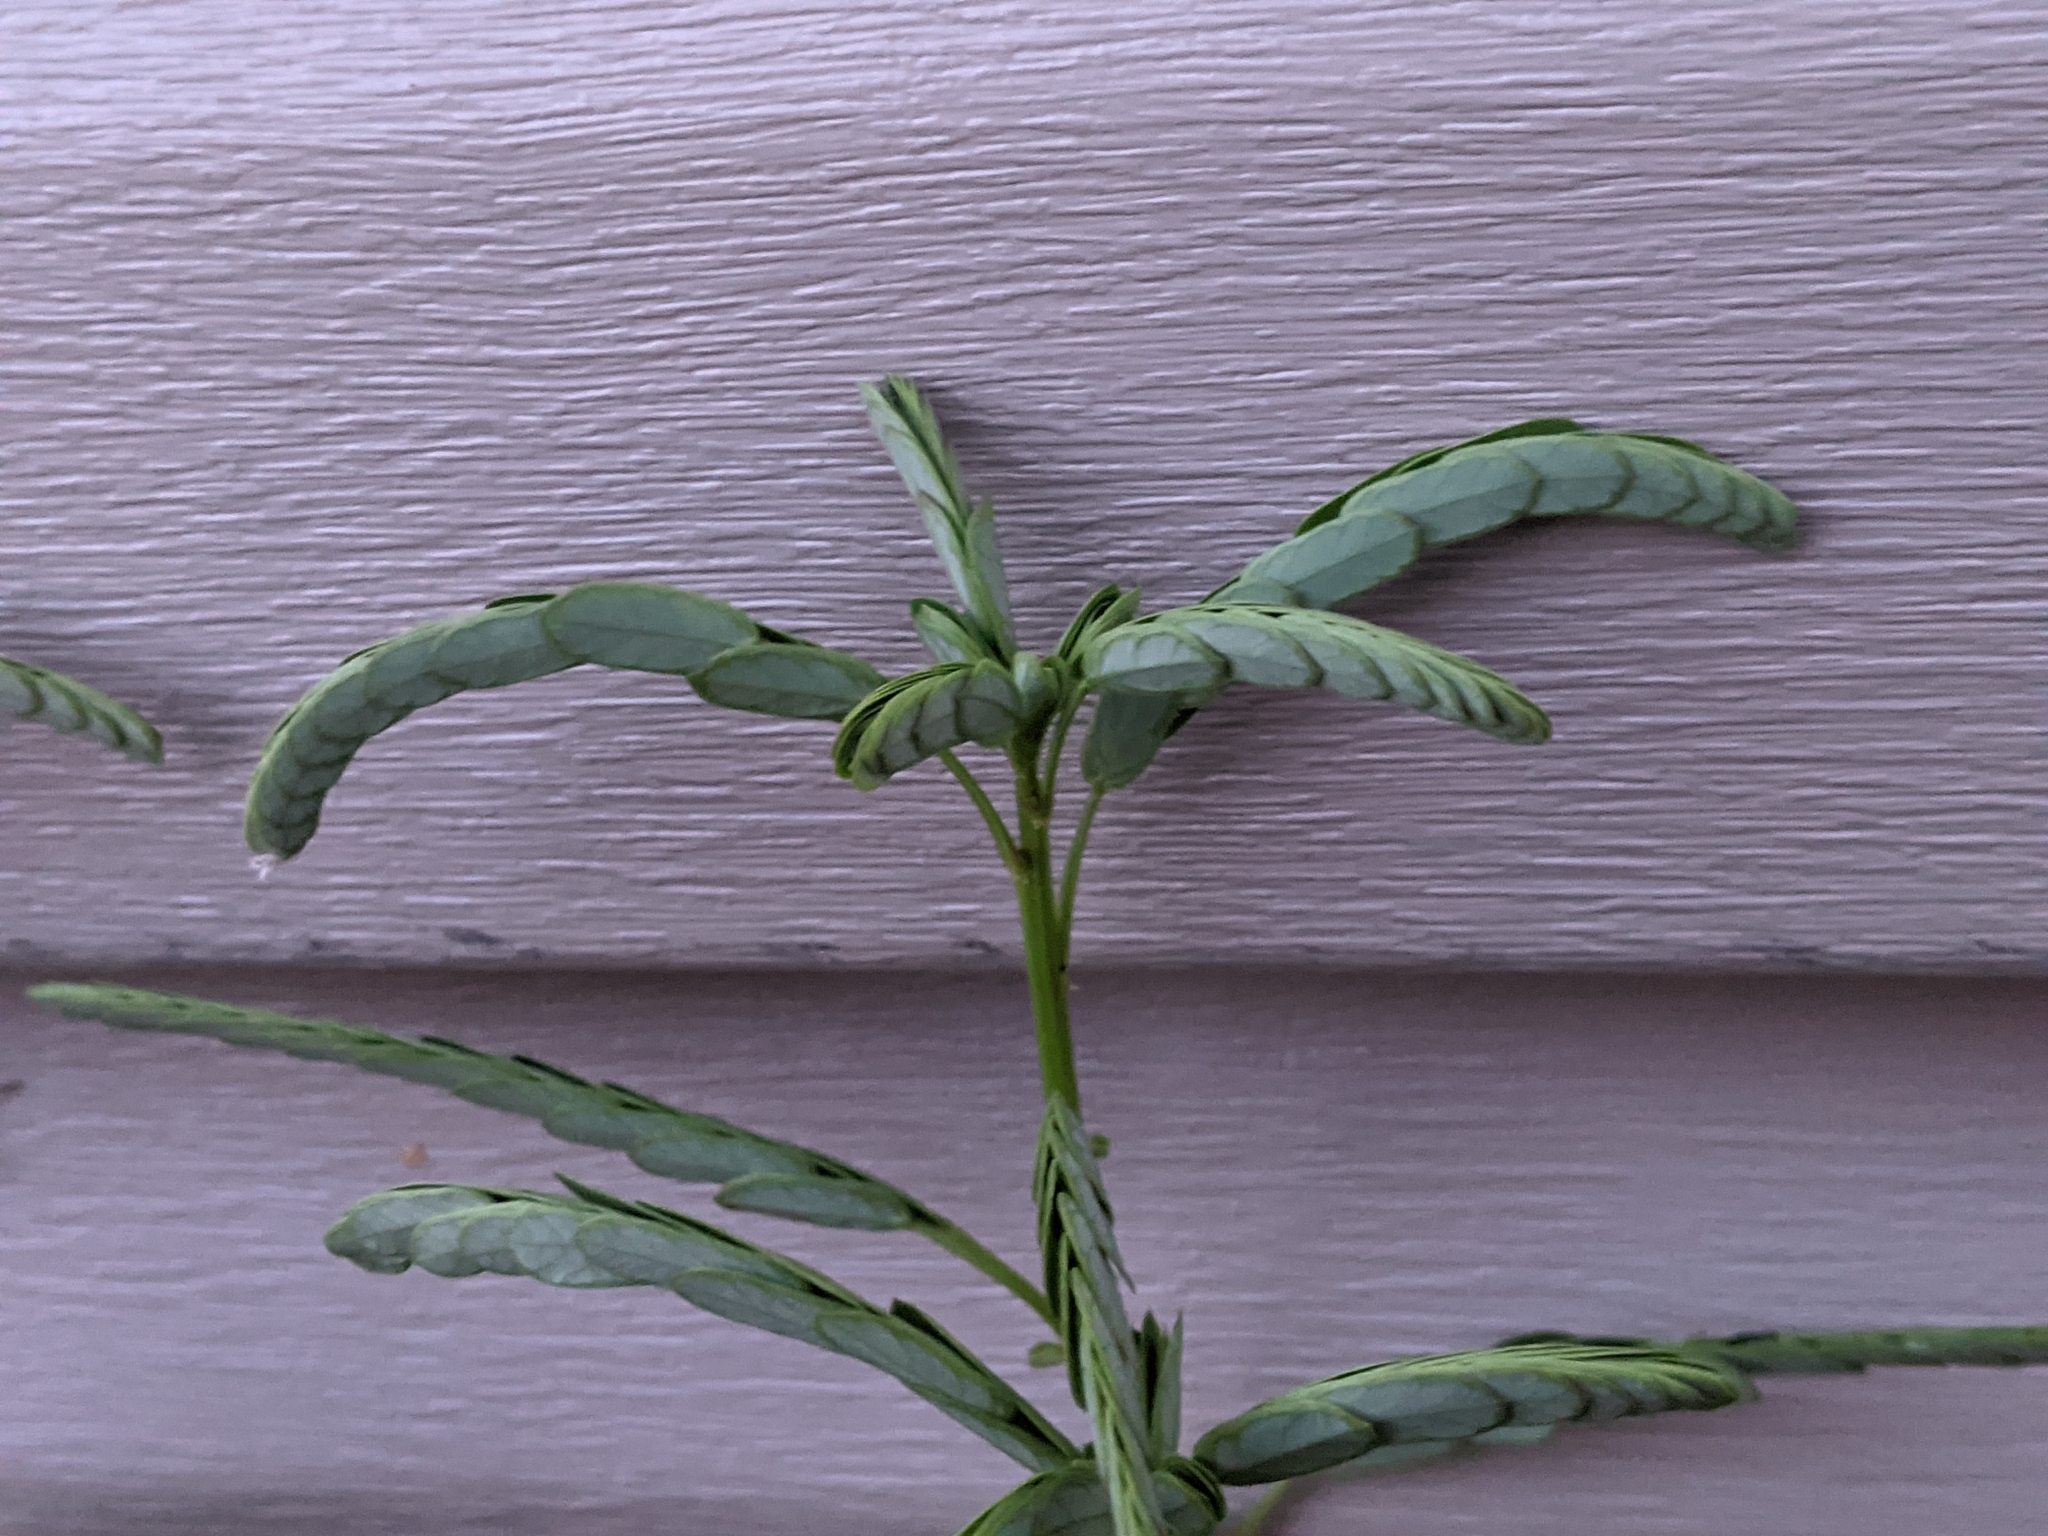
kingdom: Plantae
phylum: Tracheophyta
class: Magnoliopsida
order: Malpighiales
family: Phyllanthaceae
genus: Phyllanthus
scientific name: Phyllanthus urinaria
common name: Chamber bitter
